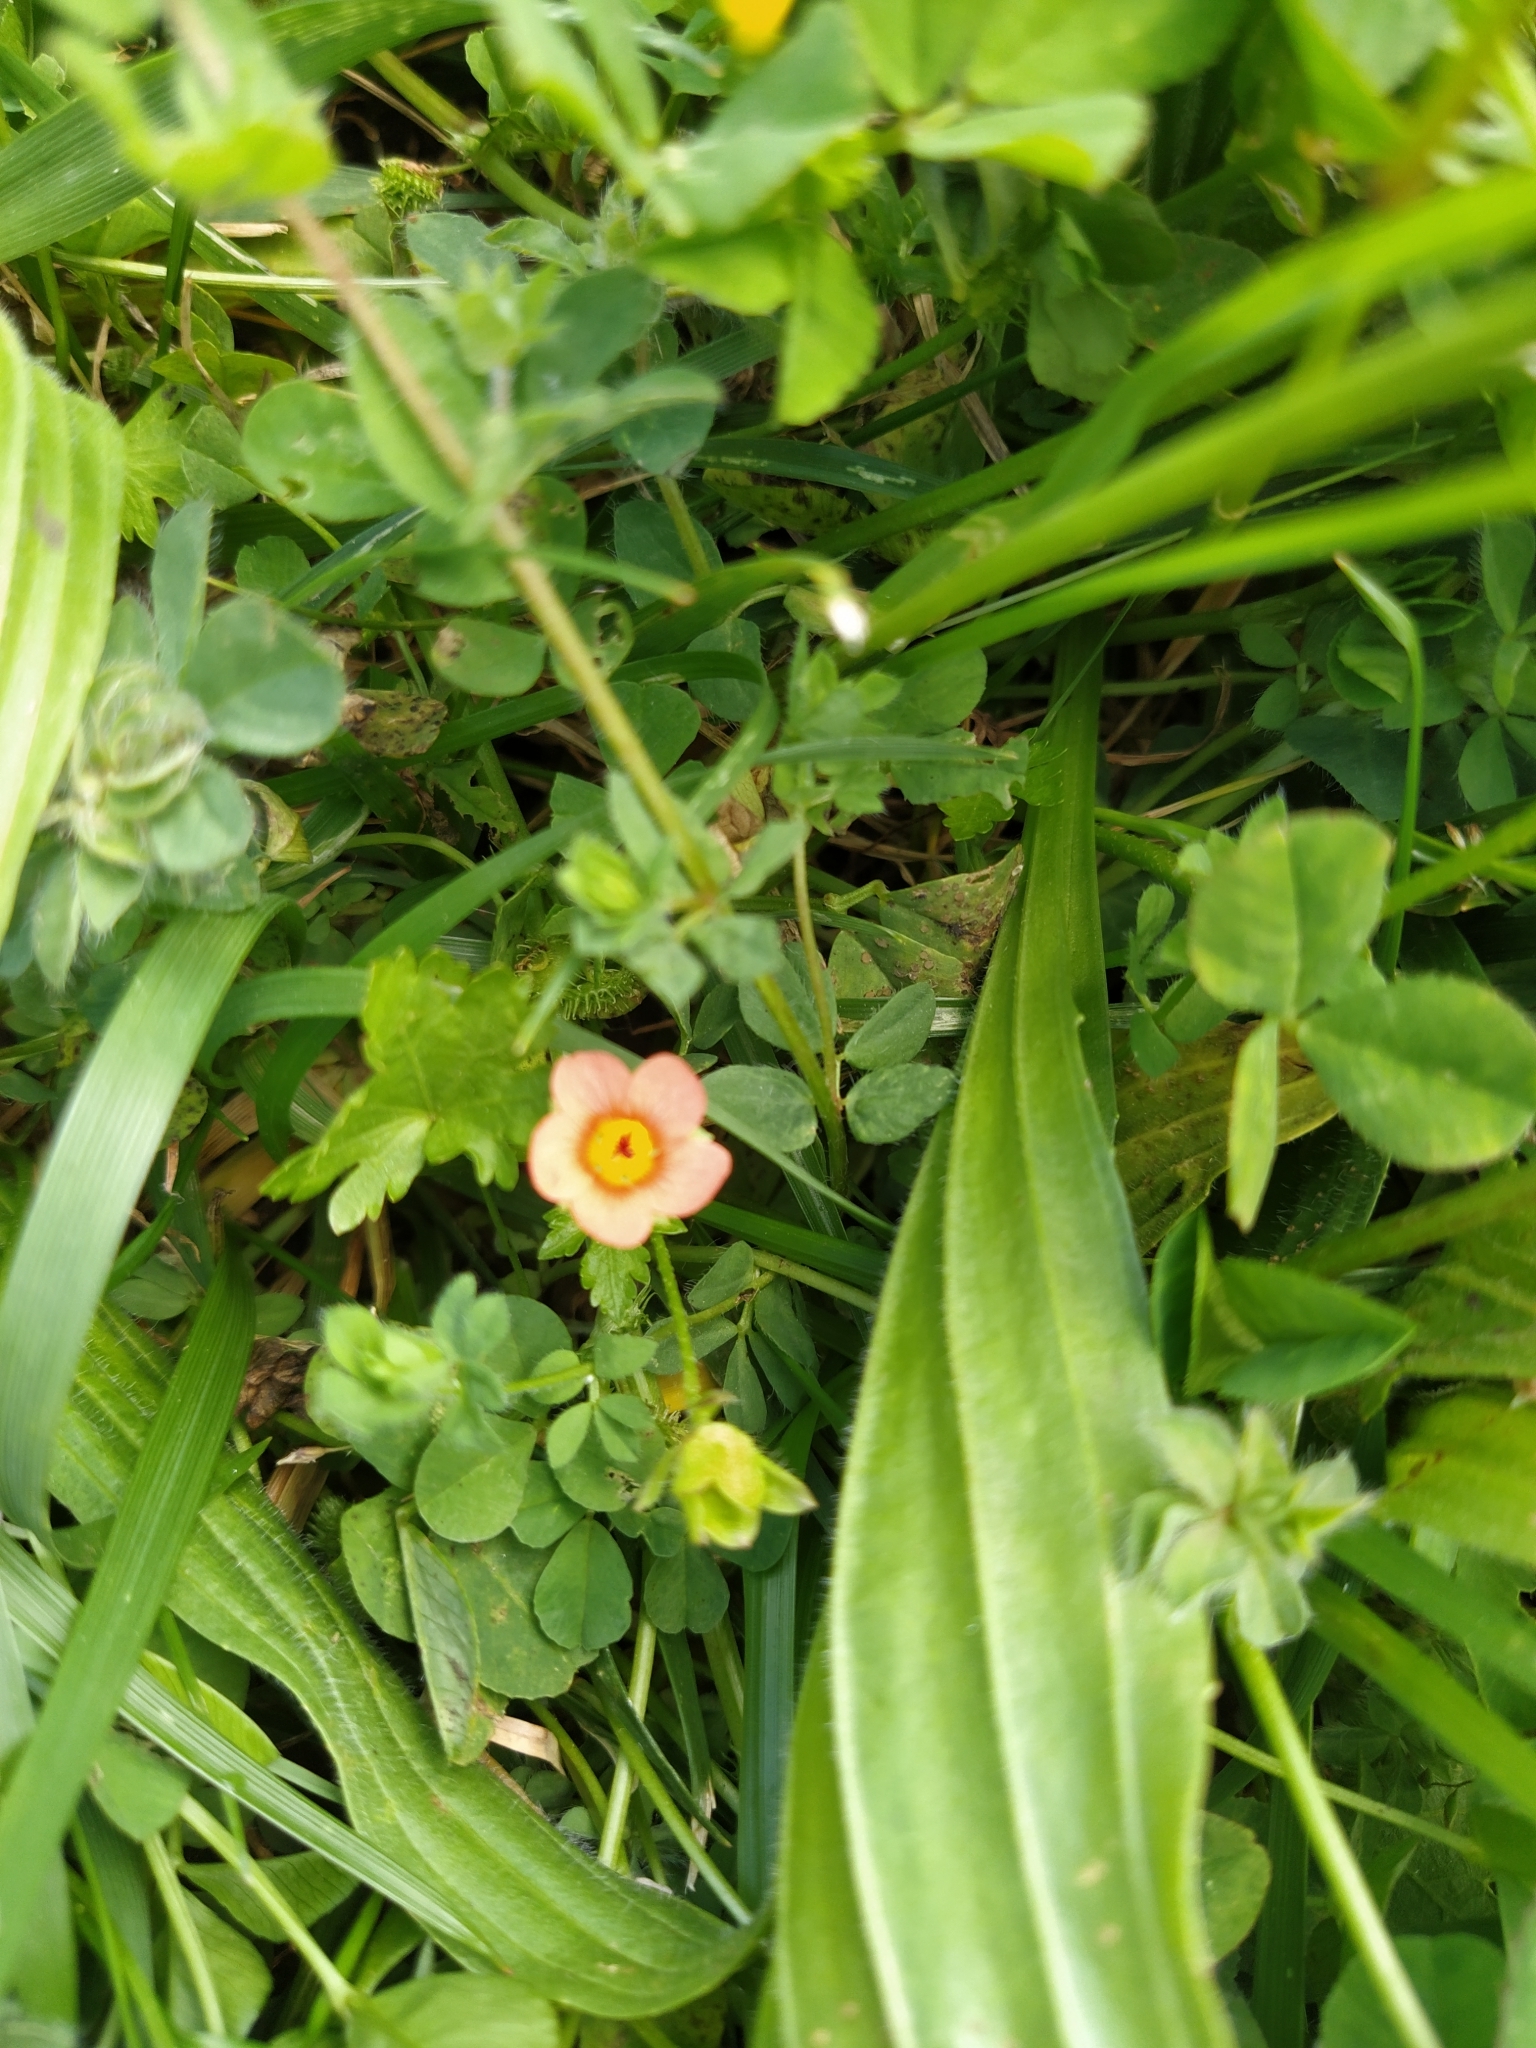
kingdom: Plantae
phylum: Tracheophyta
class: Magnoliopsida
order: Malvales
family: Malvaceae
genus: Modiola
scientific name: Modiola caroliniana
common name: Carolina bristlemallow
